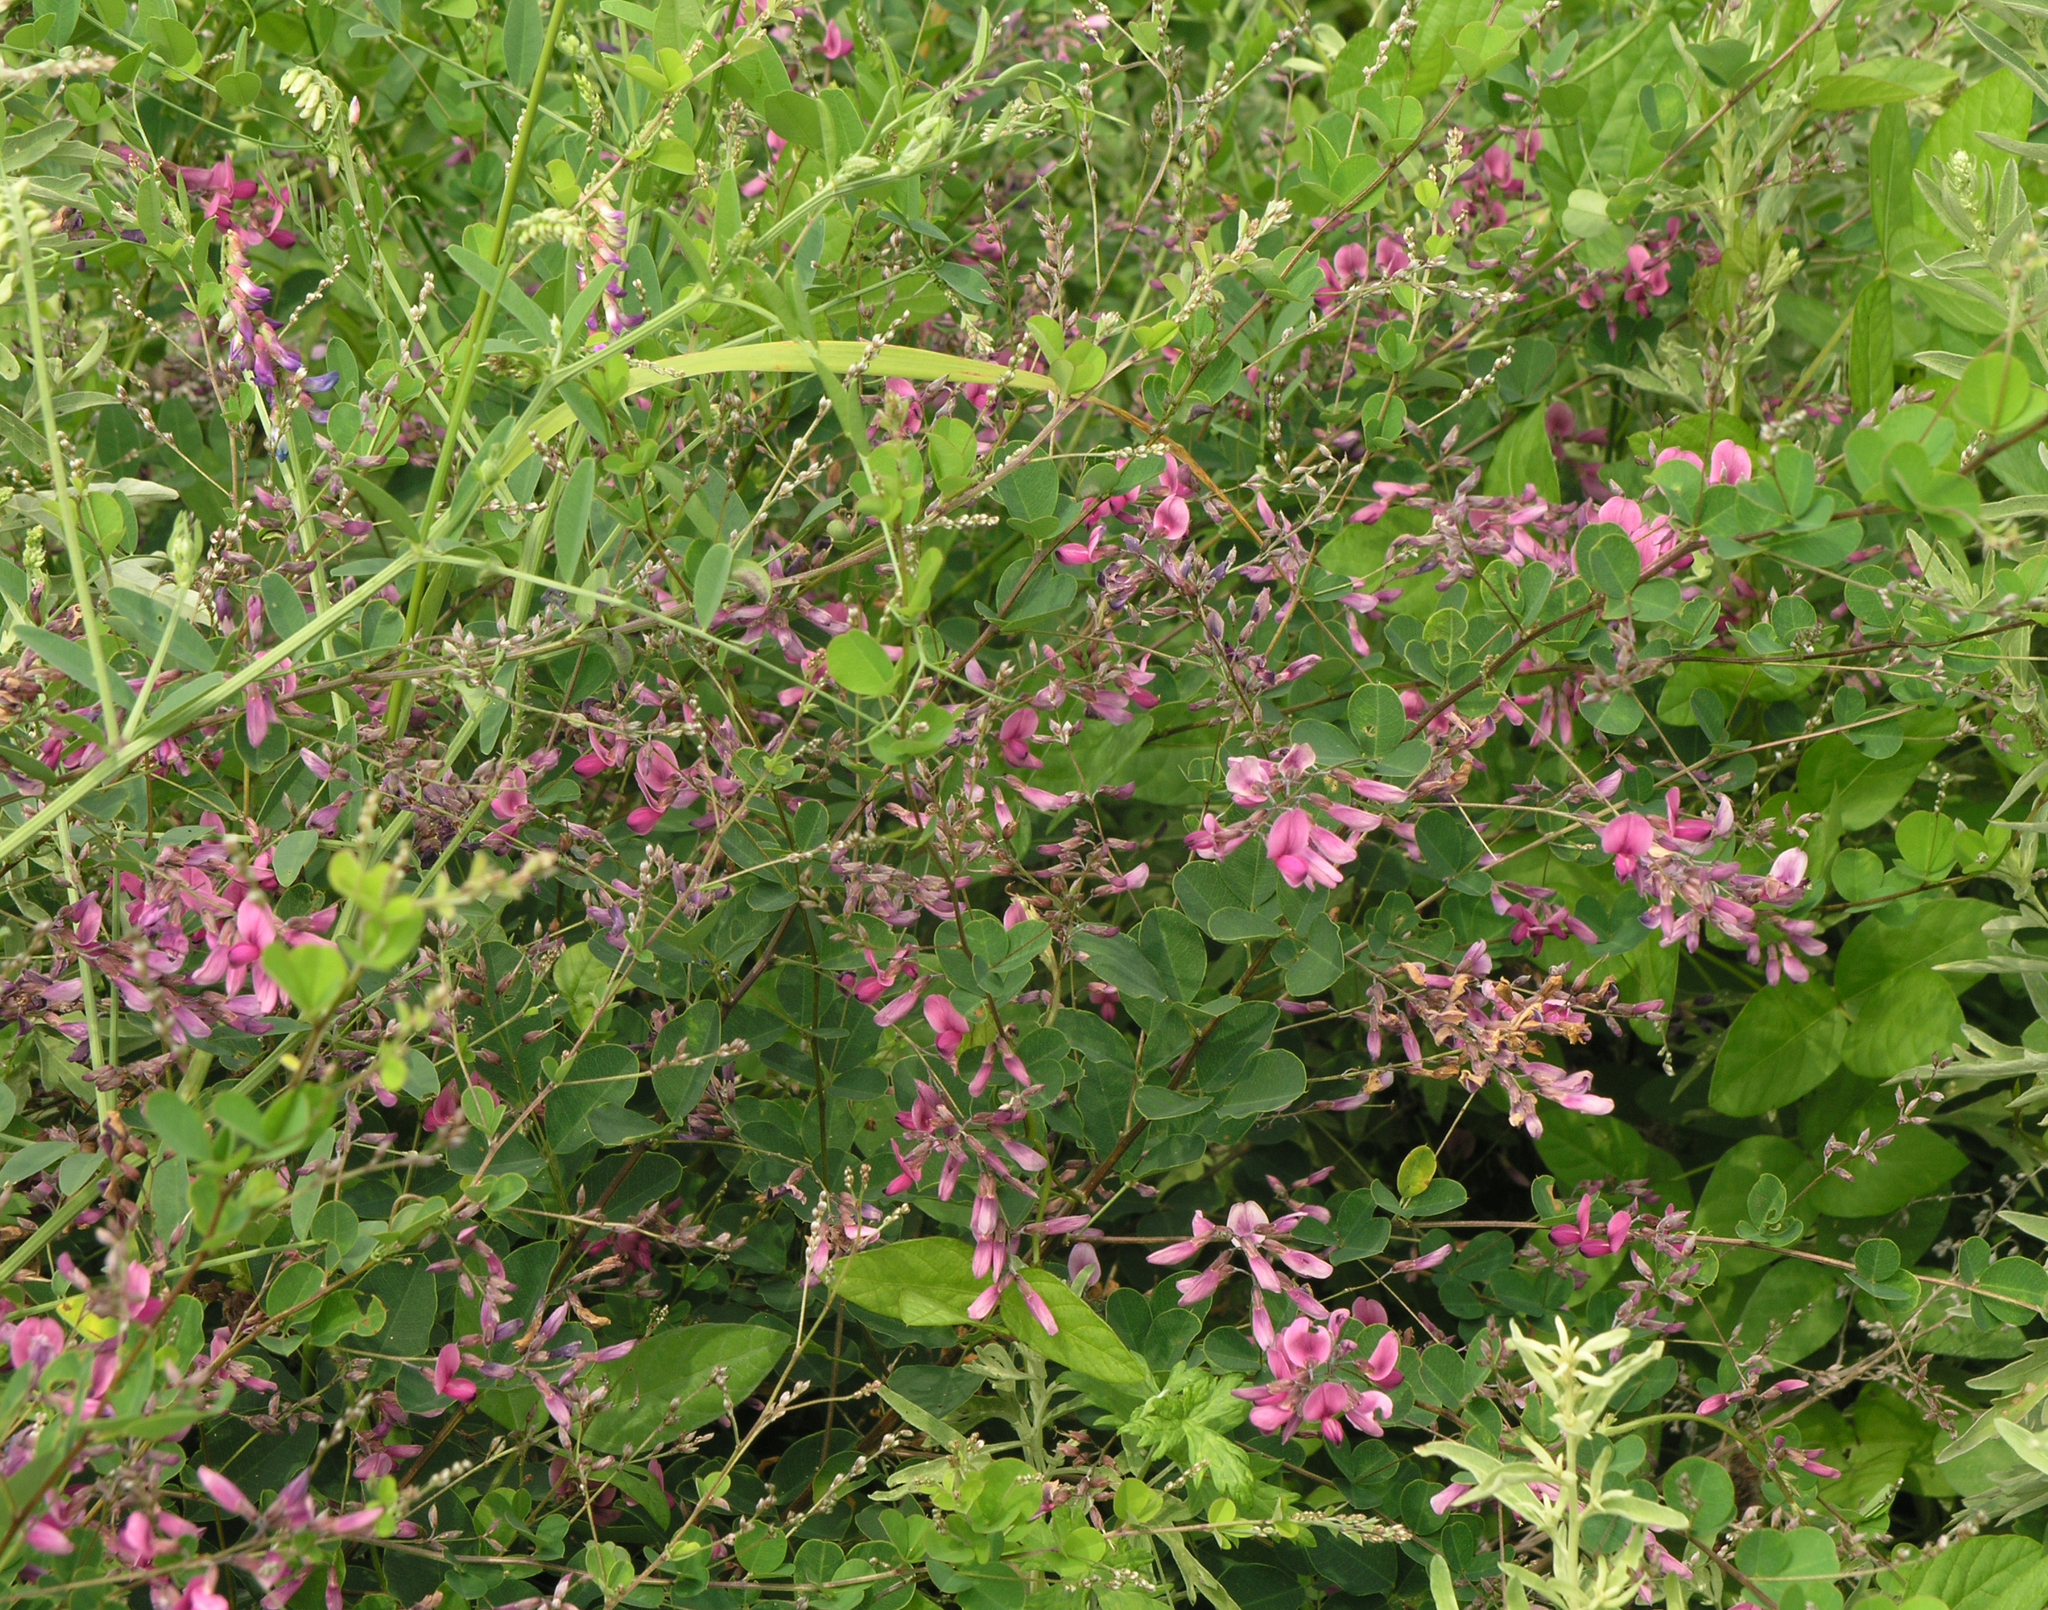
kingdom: Plantae
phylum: Tracheophyta
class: Magnoliopsida
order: Fabales
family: Fabaceae
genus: Lespedeza
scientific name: Lespedeza bicolor
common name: Shrub lespedeza
